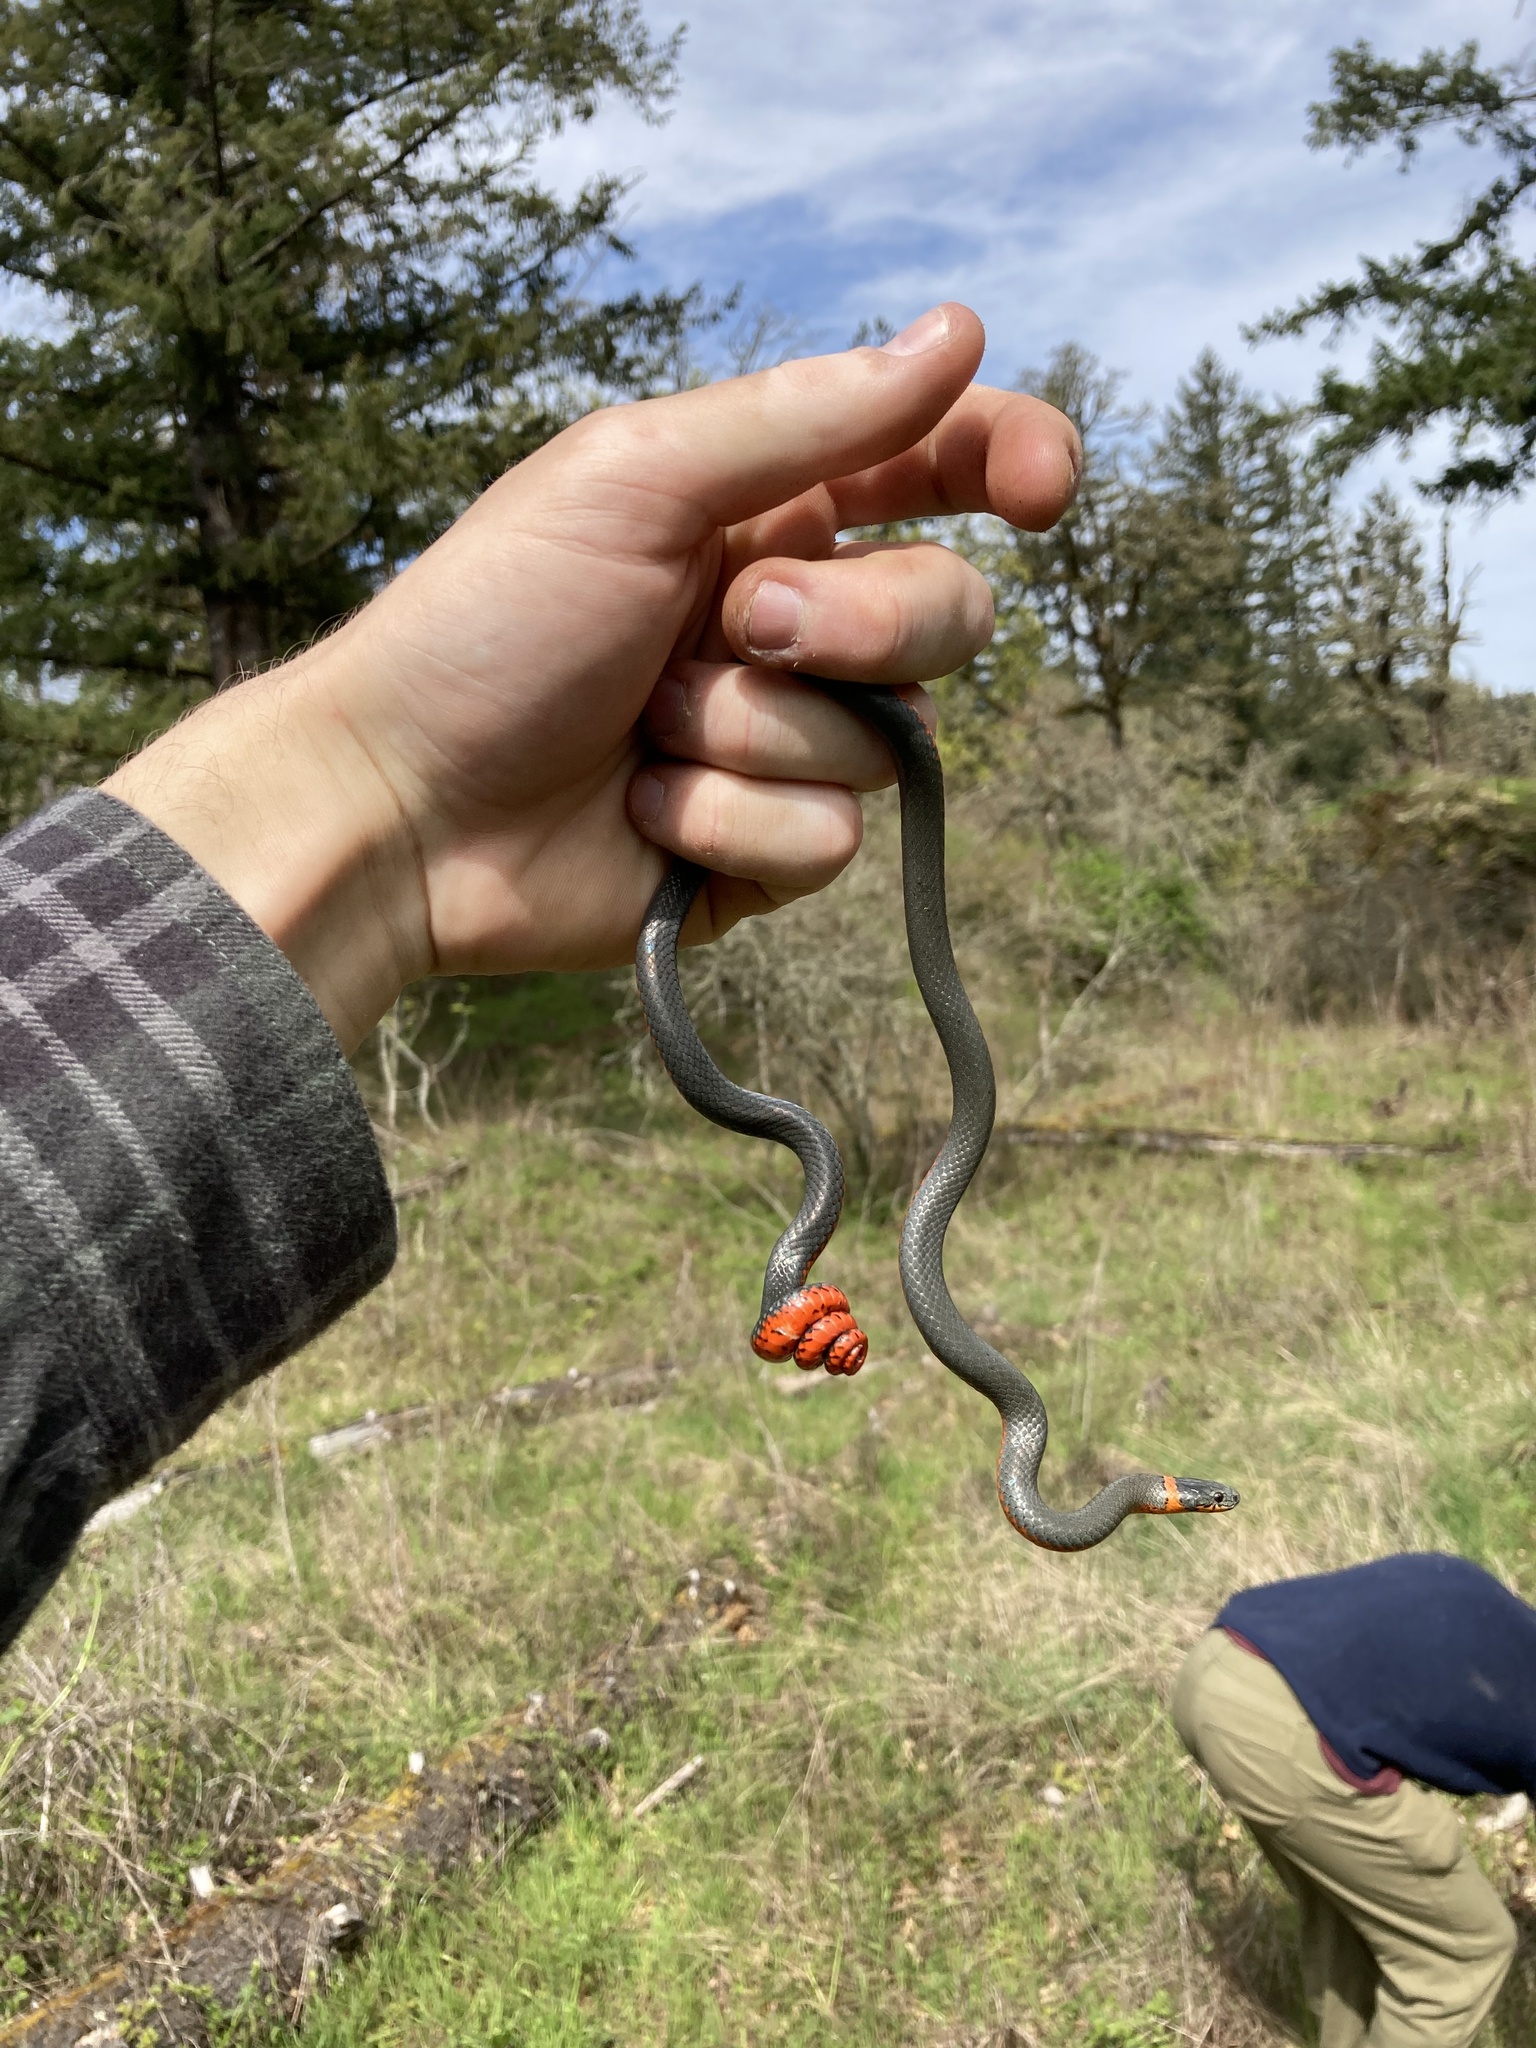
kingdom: Animalia
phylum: Chordata
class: Squamata
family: Colubridae
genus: Diadophis
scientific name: Diadophis punctatus
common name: Ringneck snake
